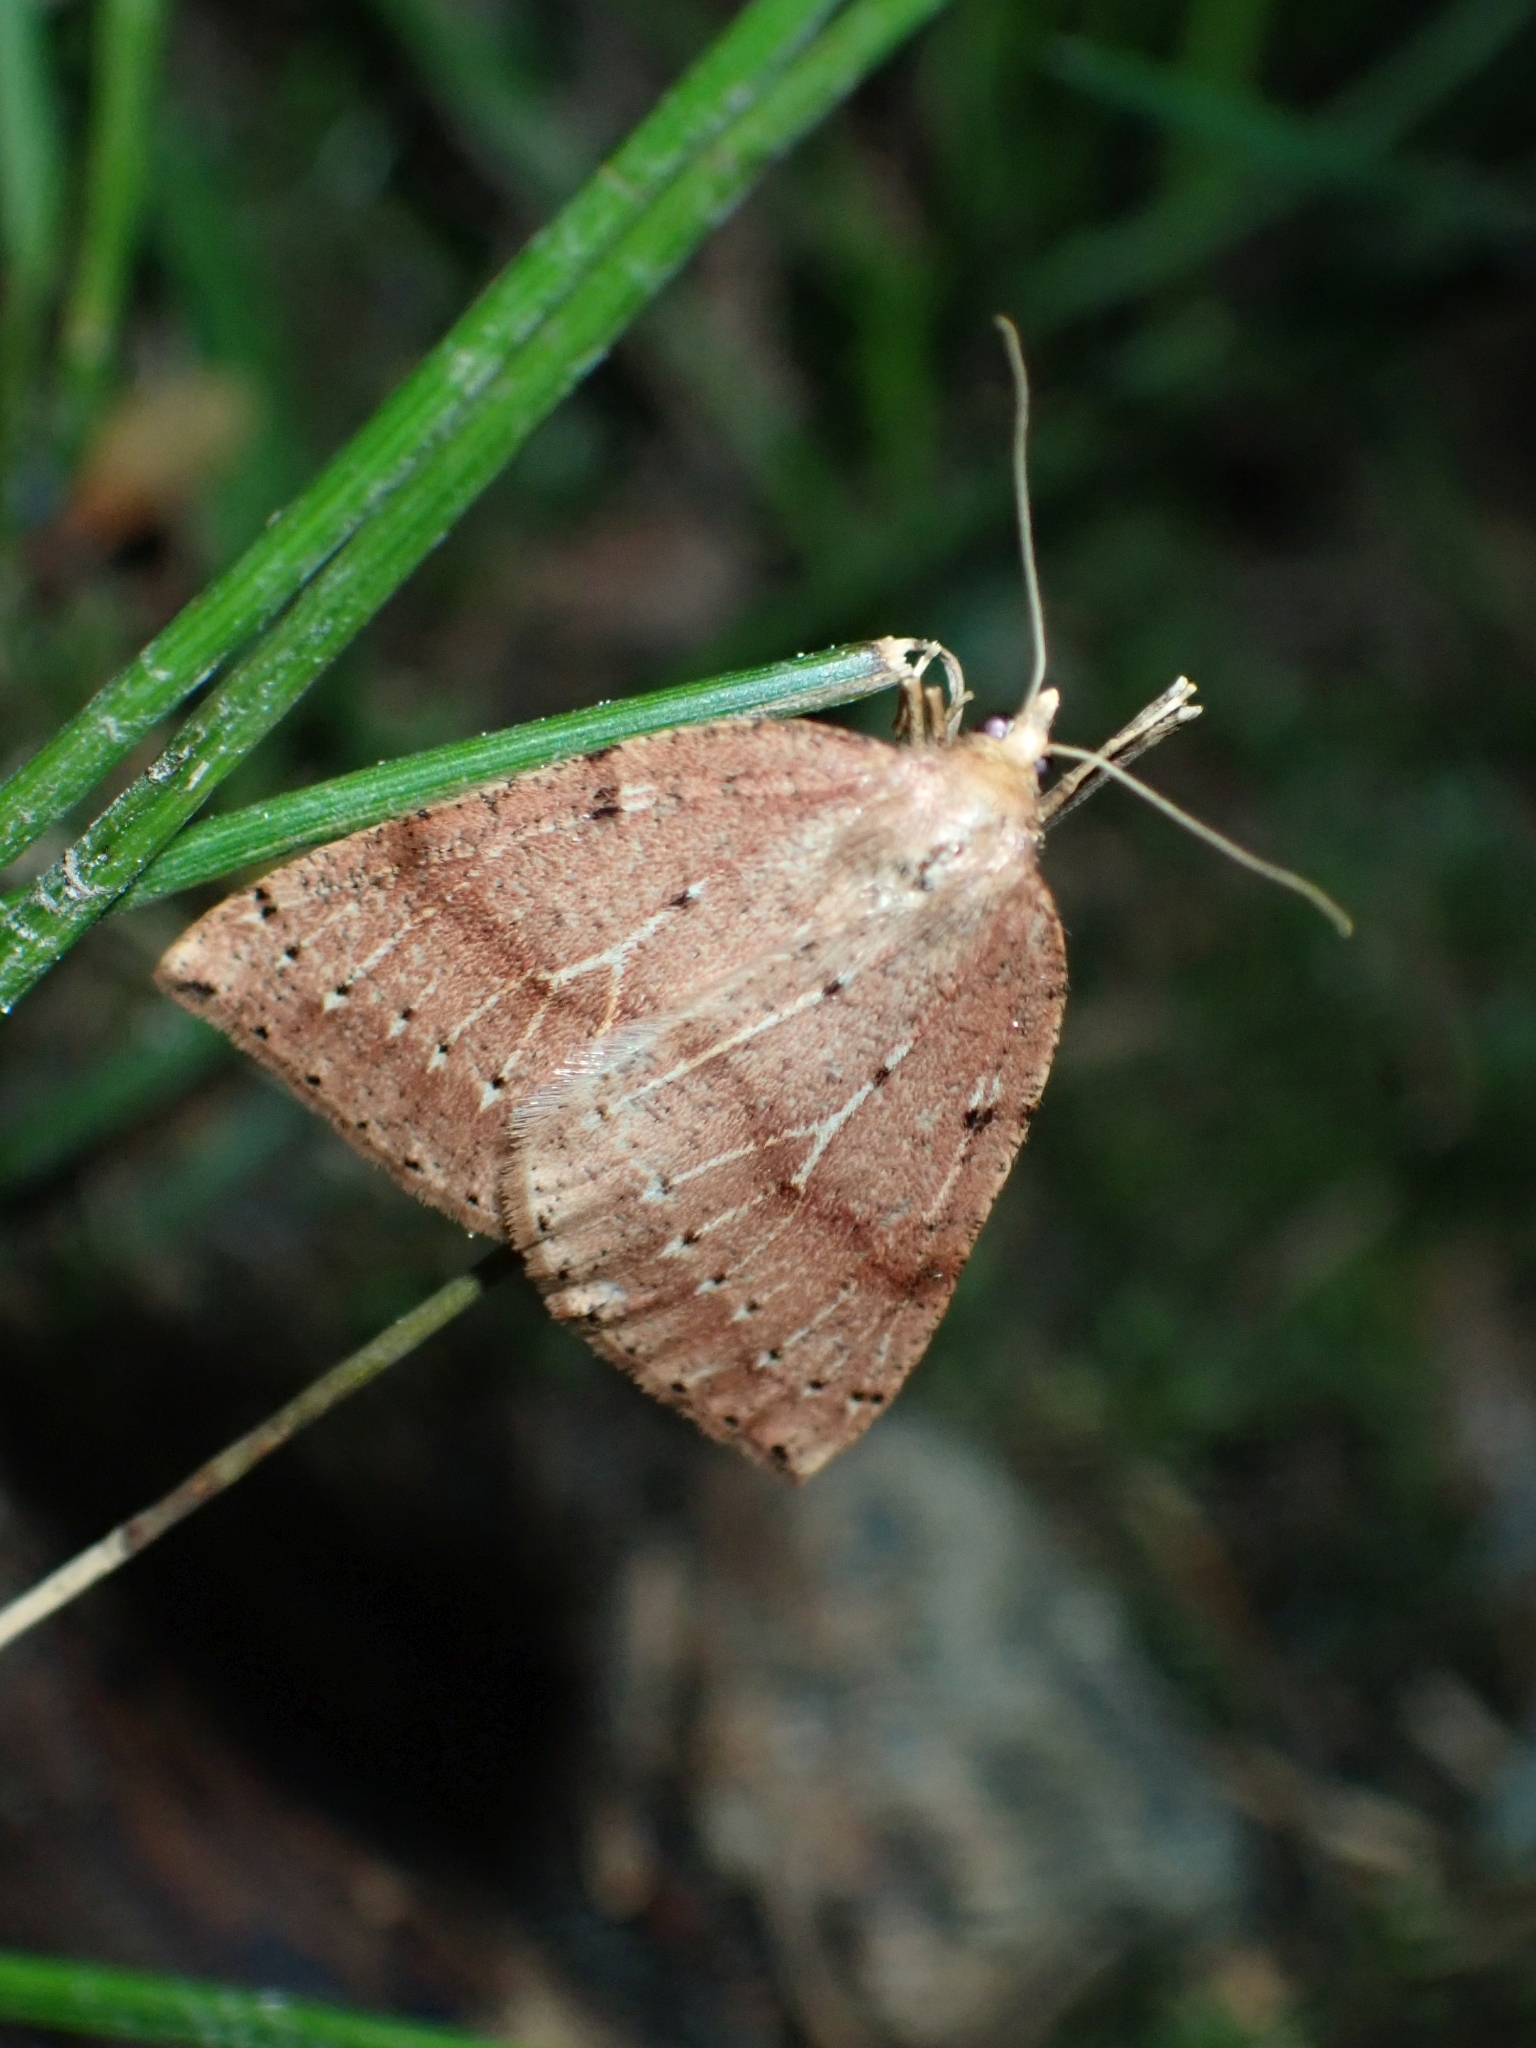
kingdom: Animalia
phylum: Arthropoda
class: Insecta
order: Lepidoptera
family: Geometridae
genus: Thallophaga
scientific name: Thallophaga hyperborea
